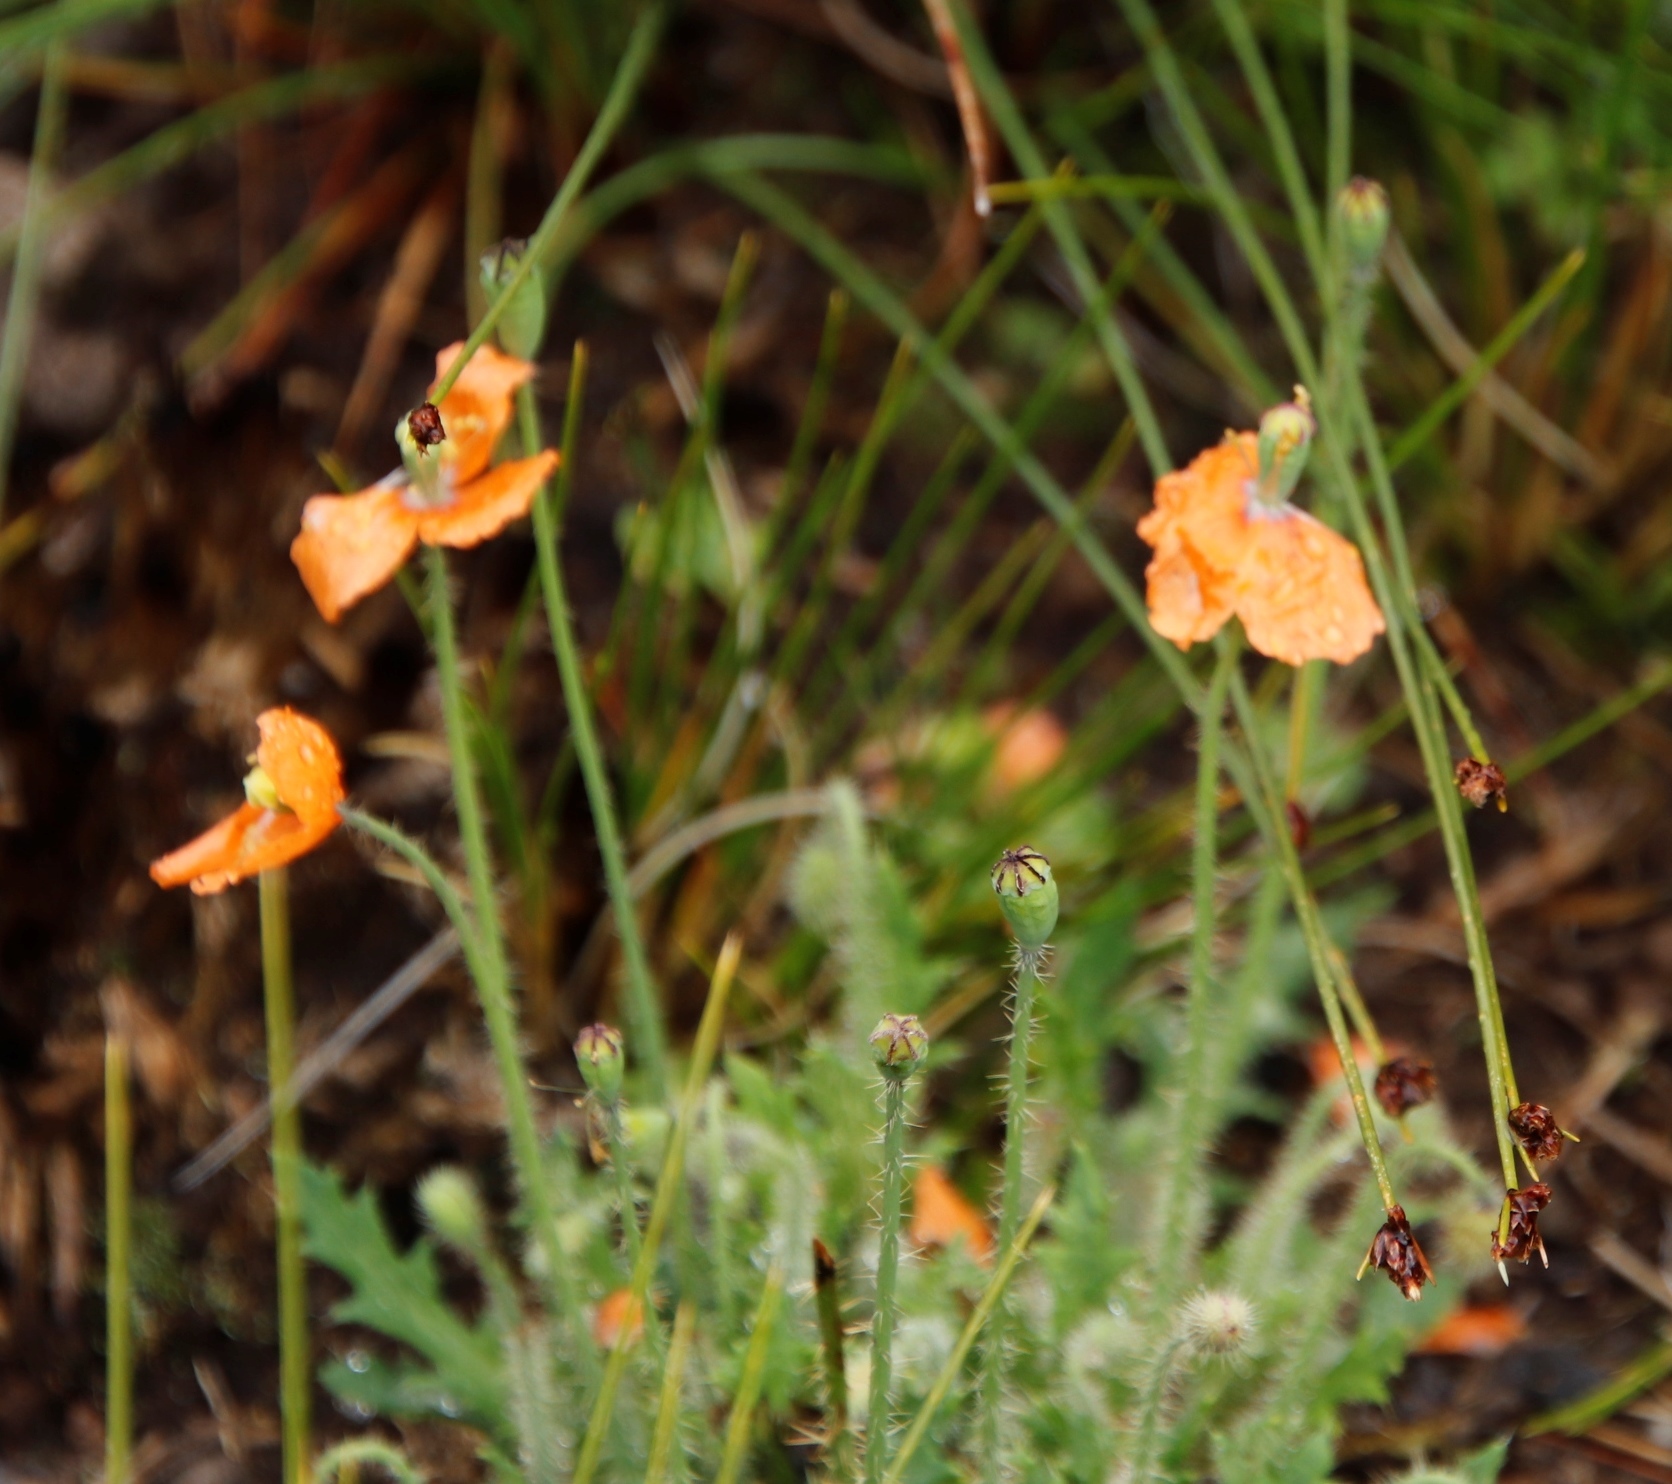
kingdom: Plantae
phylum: Tracheophyta
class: Magnoliopsida
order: Ranunculales
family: Papaveraceae
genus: Papaver
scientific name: Papaver aculeatum
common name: Bristle poppy
